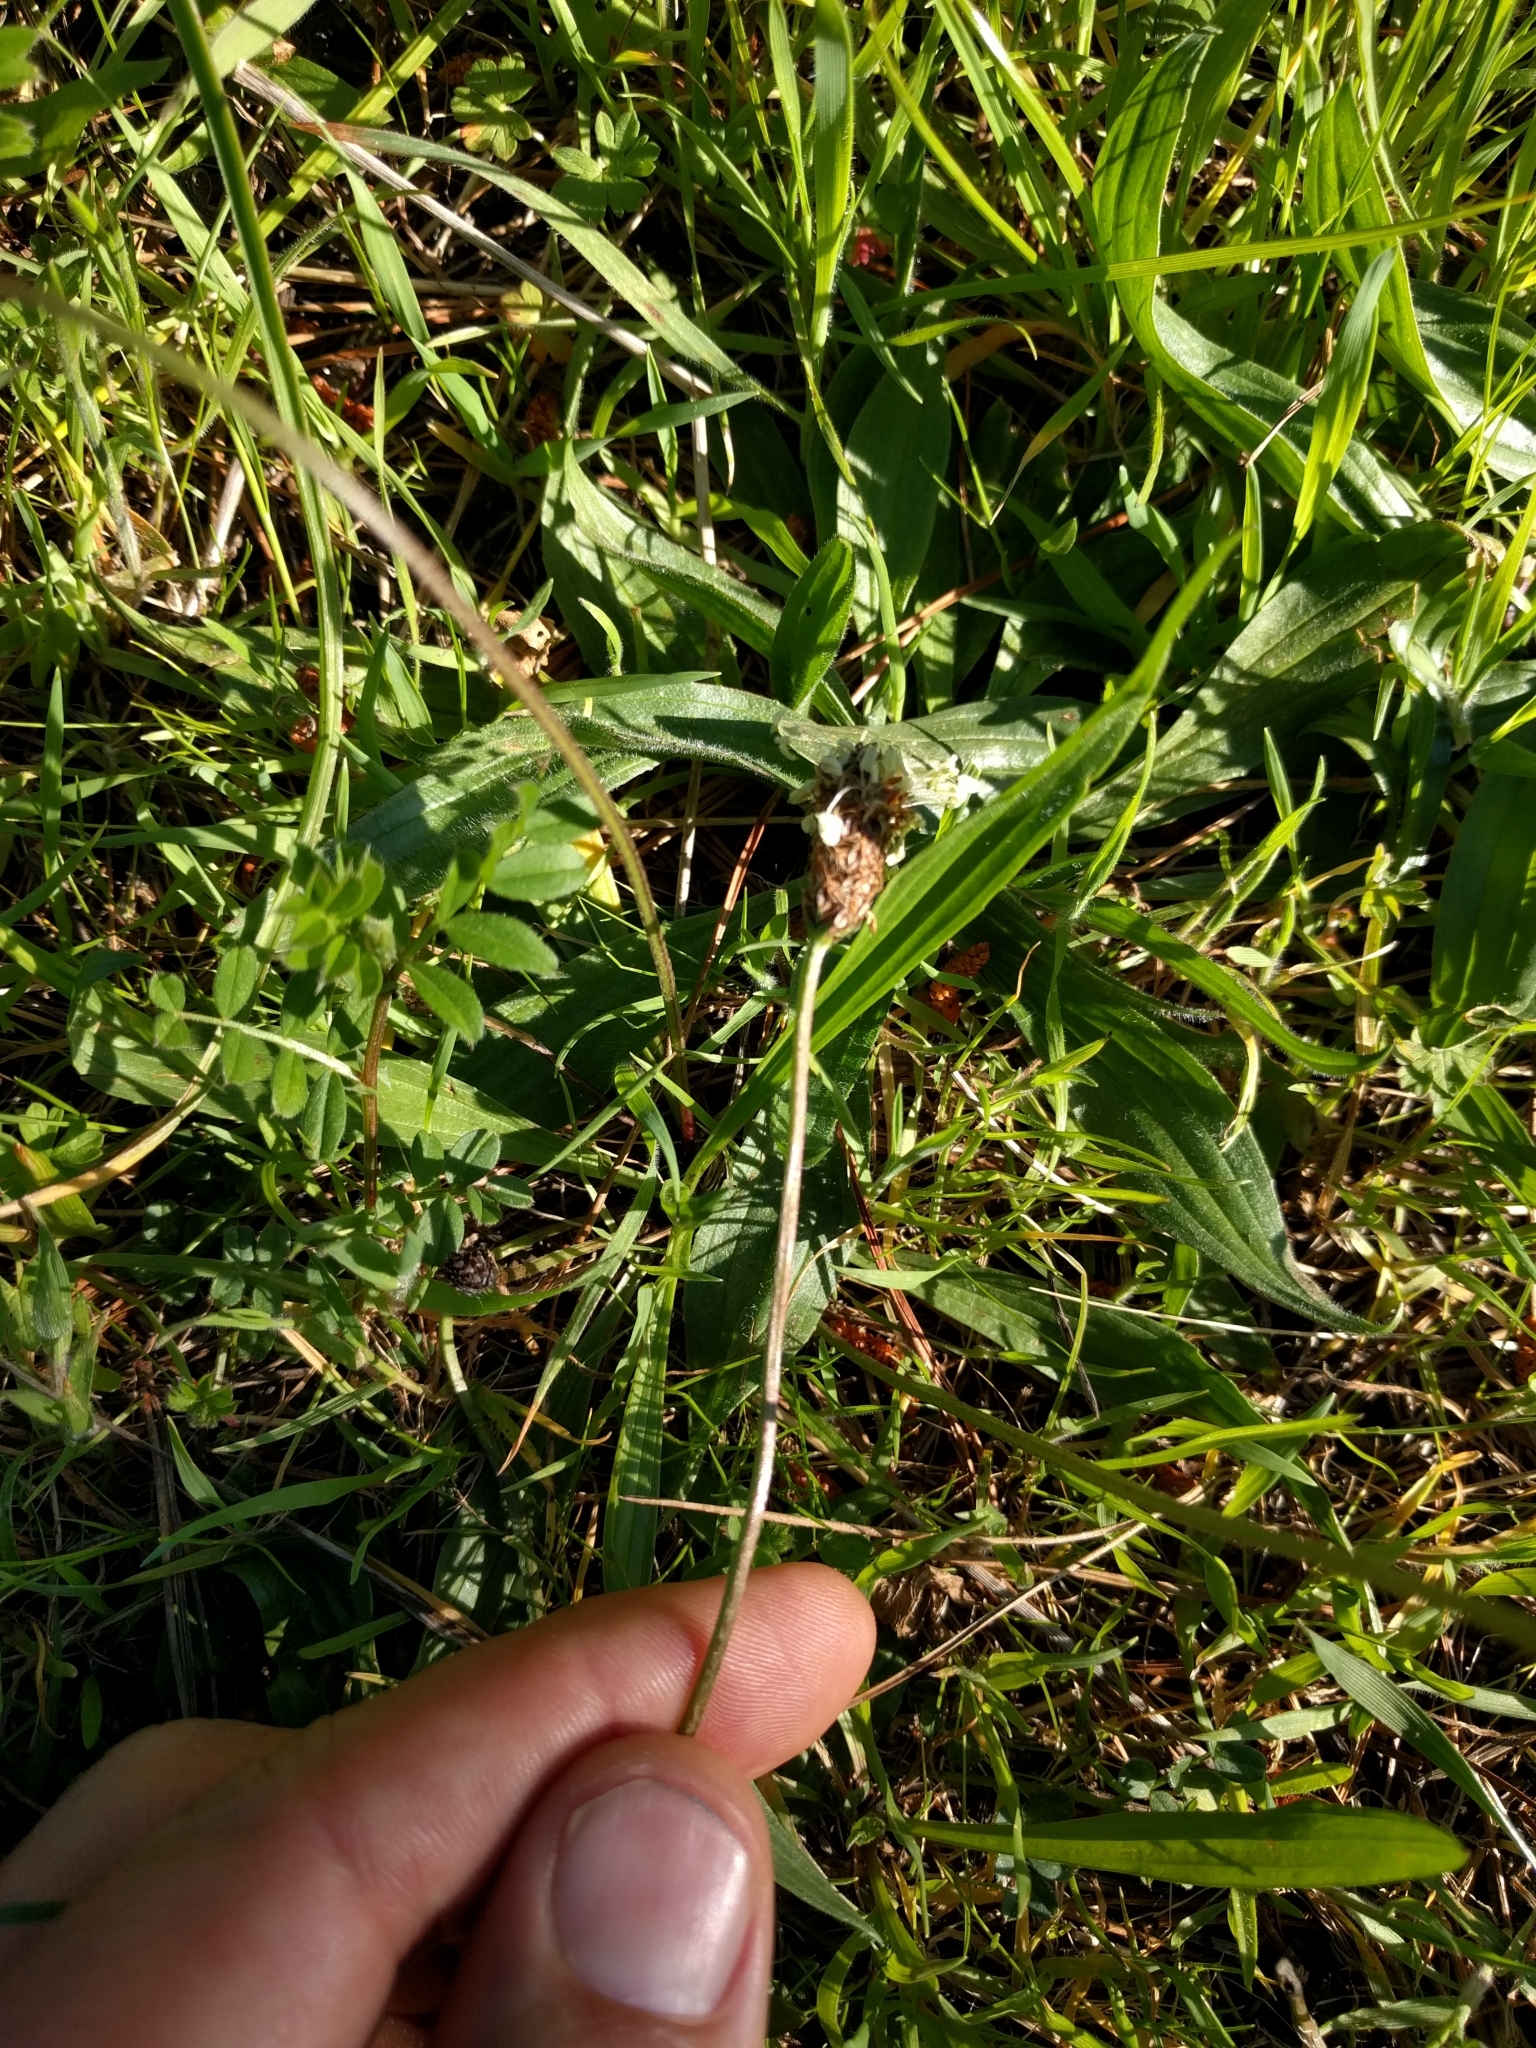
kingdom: Plantae
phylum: Tracheophyta
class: Magnoliopsida
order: Lamiales
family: Plantaginaceae
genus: Plantago
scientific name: Plantago lanceolata
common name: Ribwort plantain
